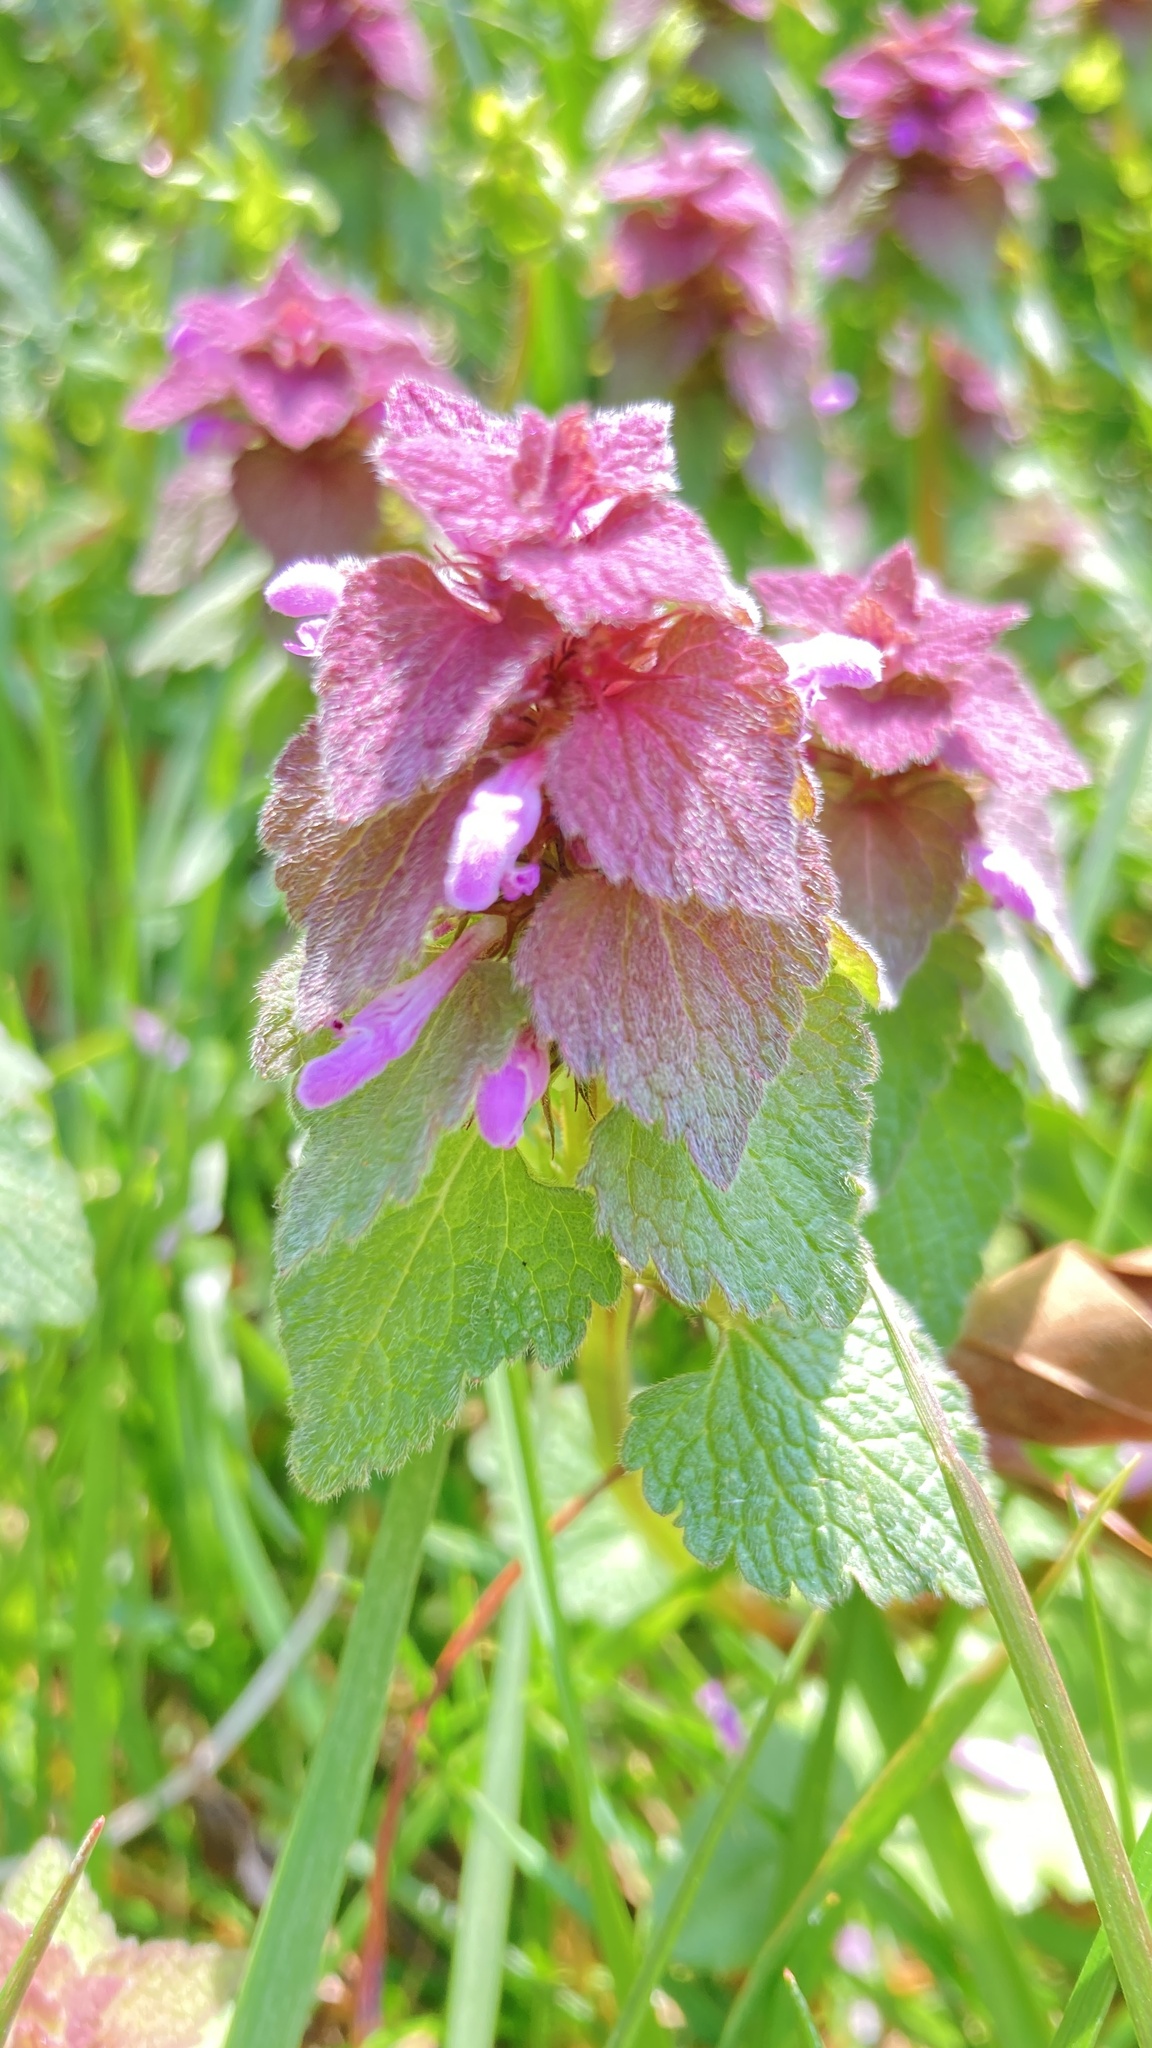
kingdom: Plantae
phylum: Tracheophyta
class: Magnoliopsida
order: Lamiales
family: Lamiaceae
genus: Lamium
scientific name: Lamium purpureum
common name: Red dead-nettle
